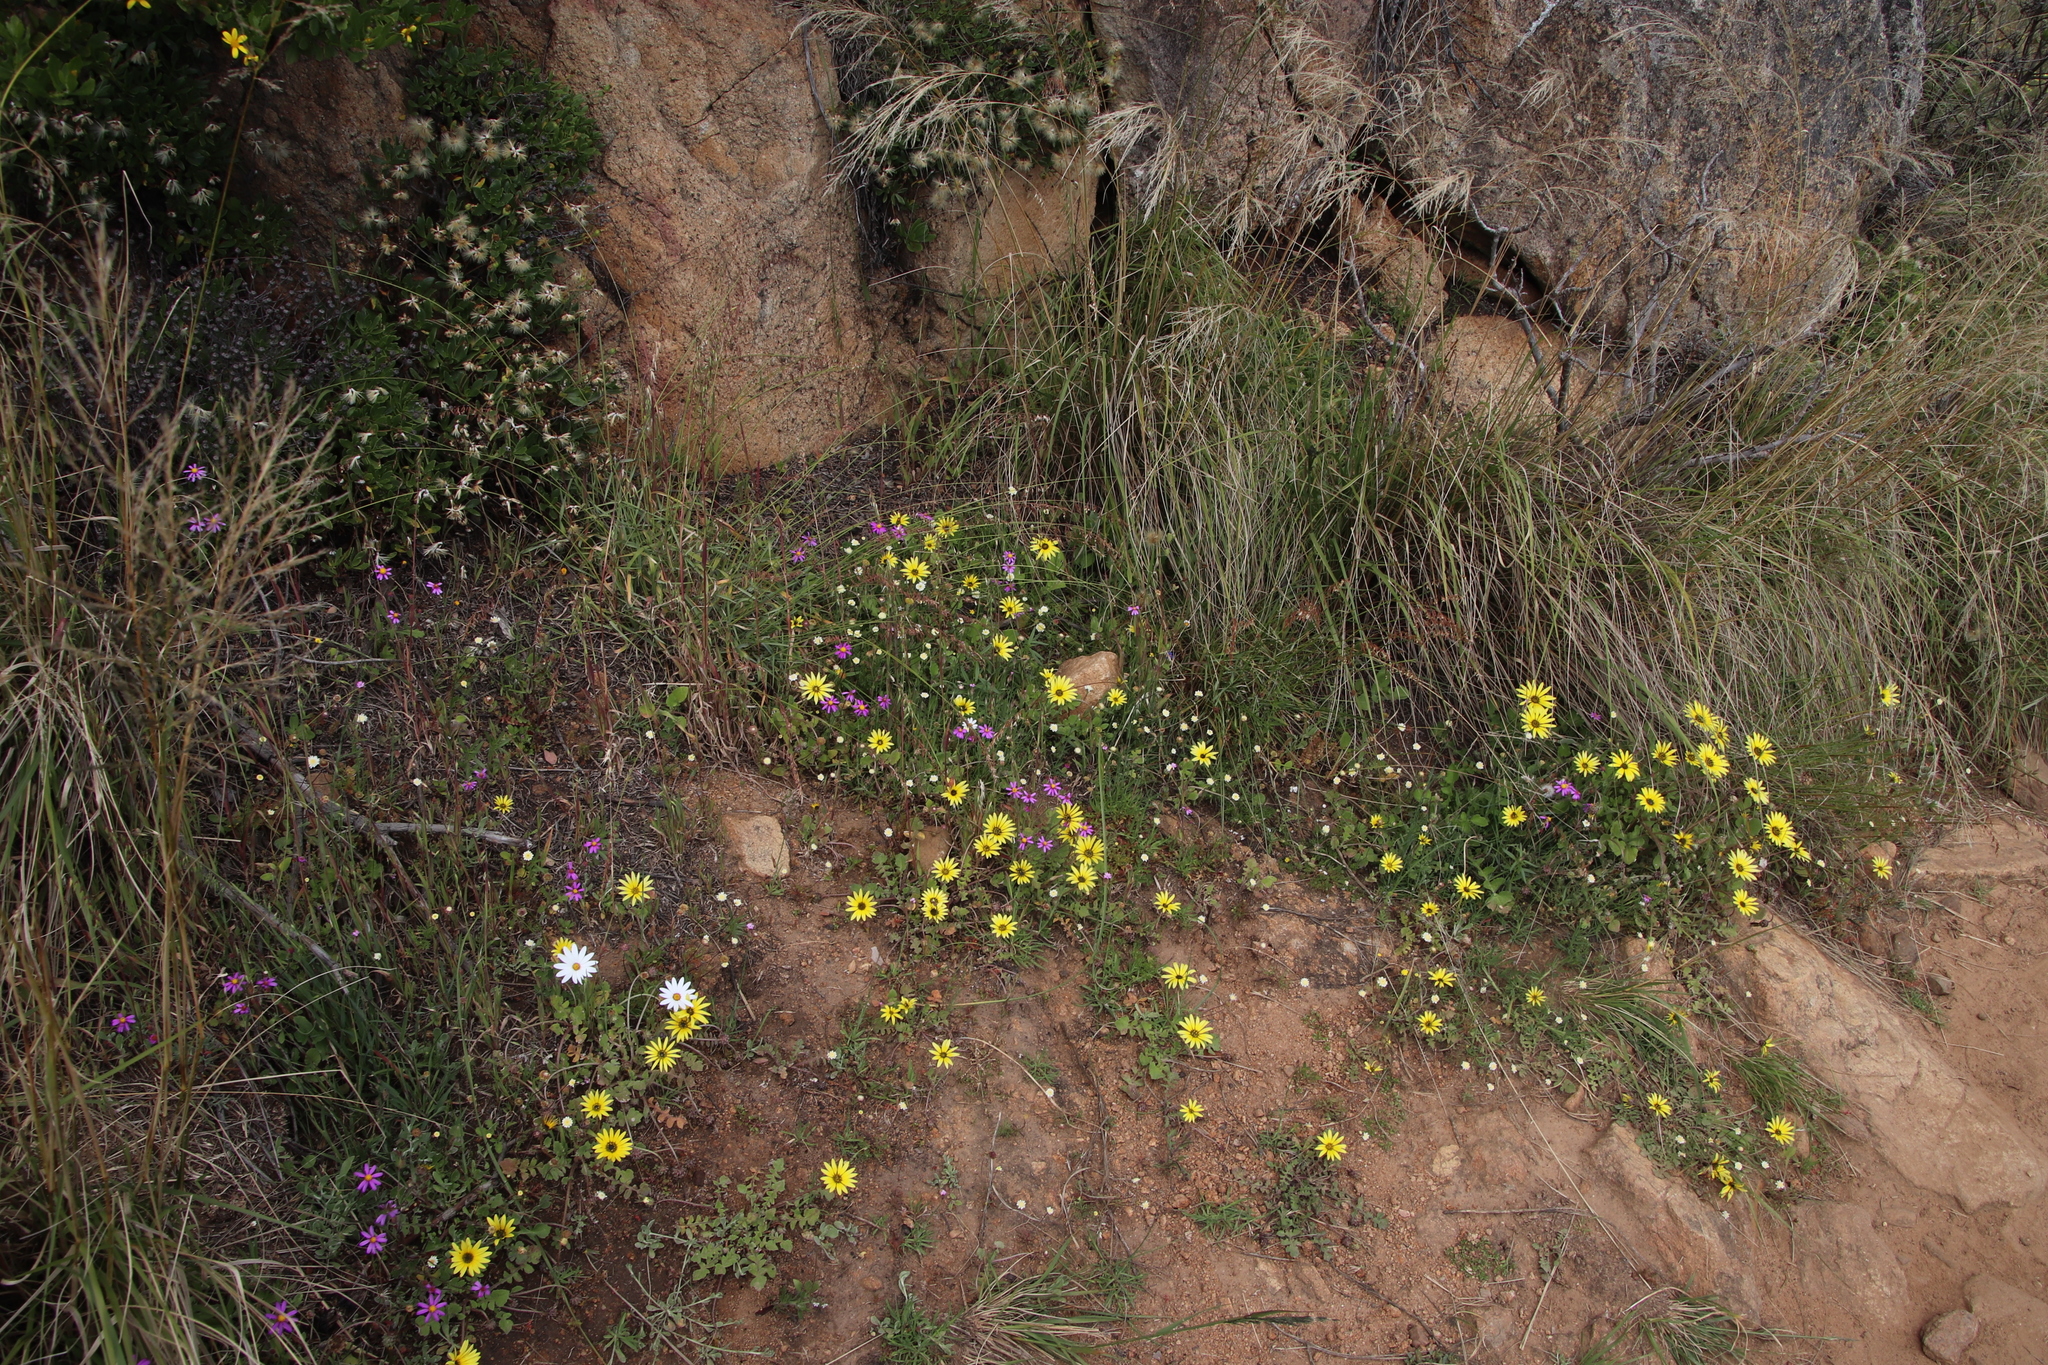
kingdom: Plantae
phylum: Tracheophyta
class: Magnoliopsida
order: Asterales
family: Asteraceae
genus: Arctotheca
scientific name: Arctotheca calendula
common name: Capeweed
